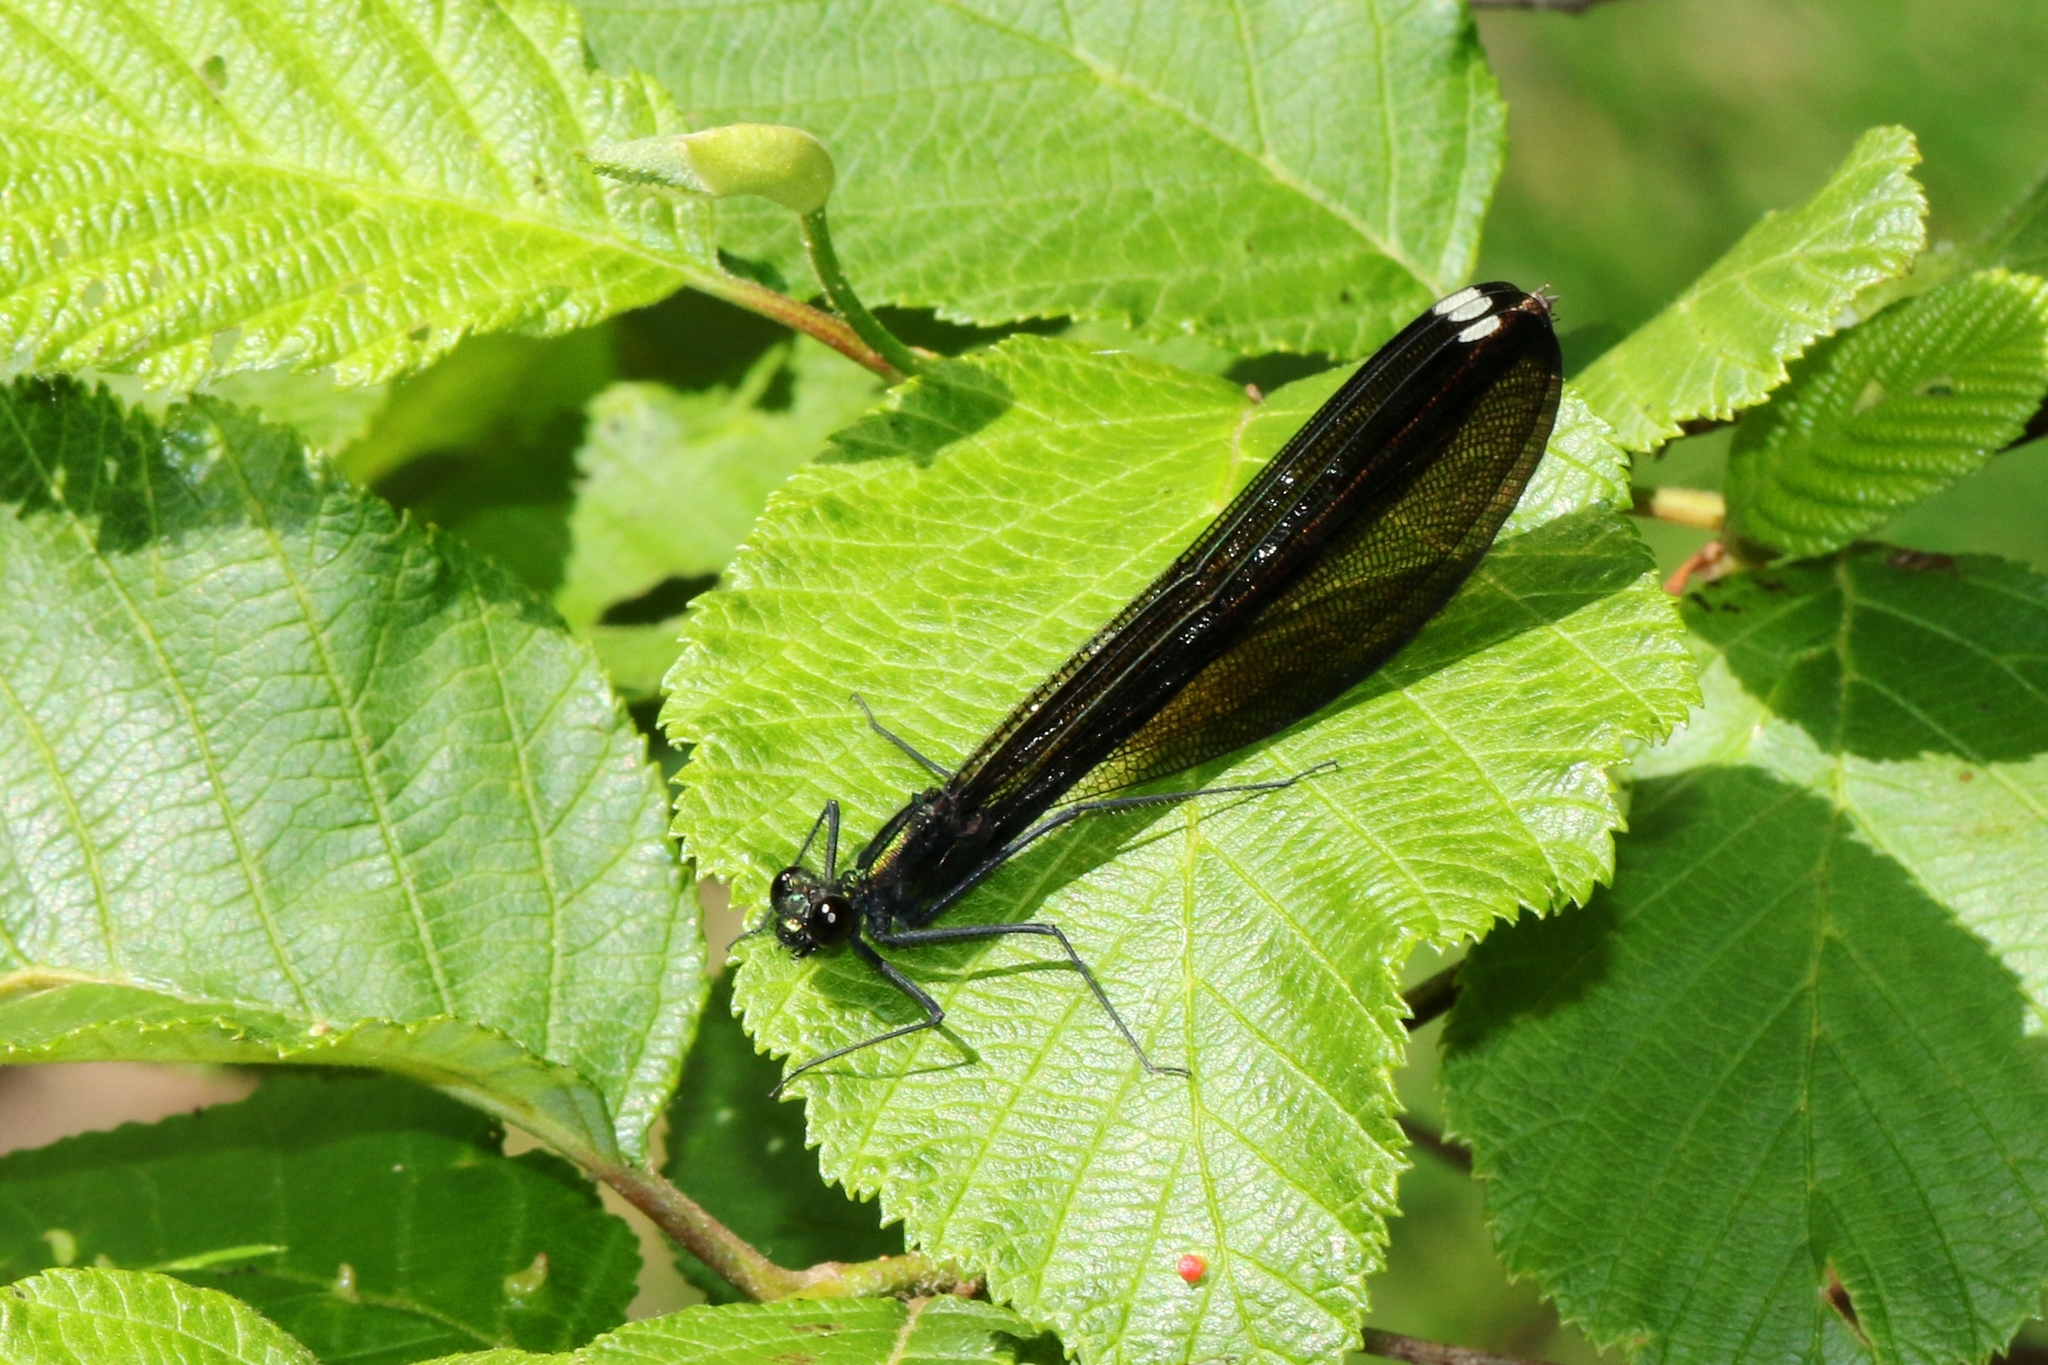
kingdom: Animalia
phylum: Arthropoda
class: Insecta
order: Odonata
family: Calopterygidae
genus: Calopteryx
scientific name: Calopteryx maculata
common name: Ebony jewelwing
